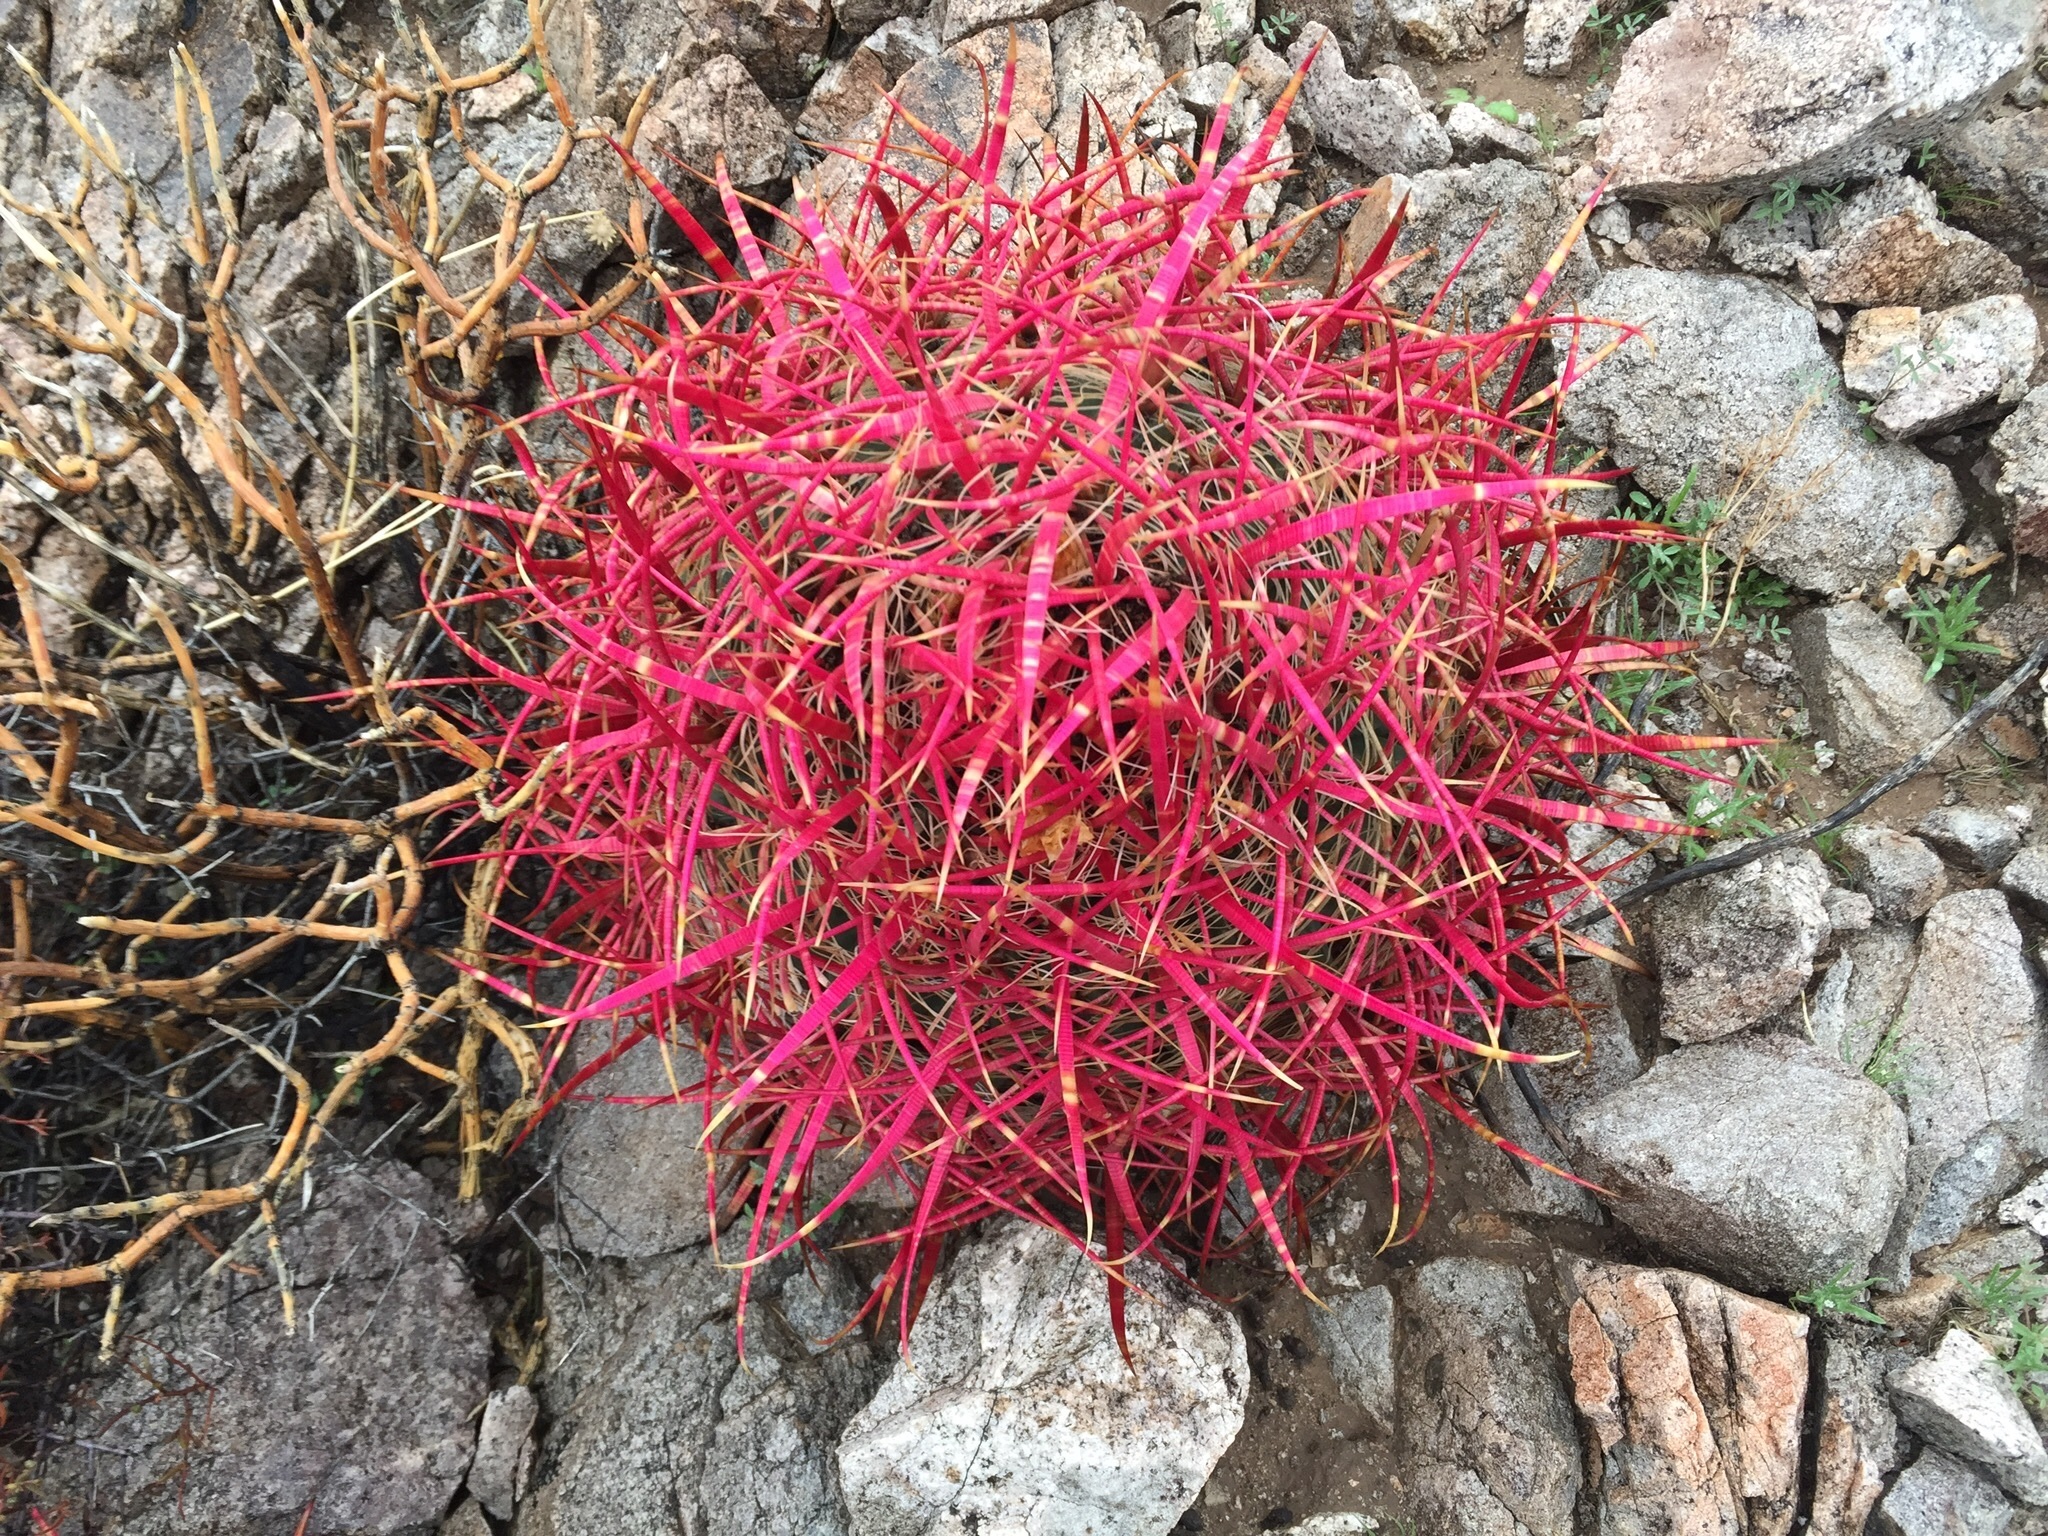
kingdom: Plantae
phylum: Tracheophyta
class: Magnoliopsida
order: Caryophyllales
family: Cactaceae
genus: Ferocactus
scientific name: Ferocactus cylindraceus
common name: California barrel cactus
